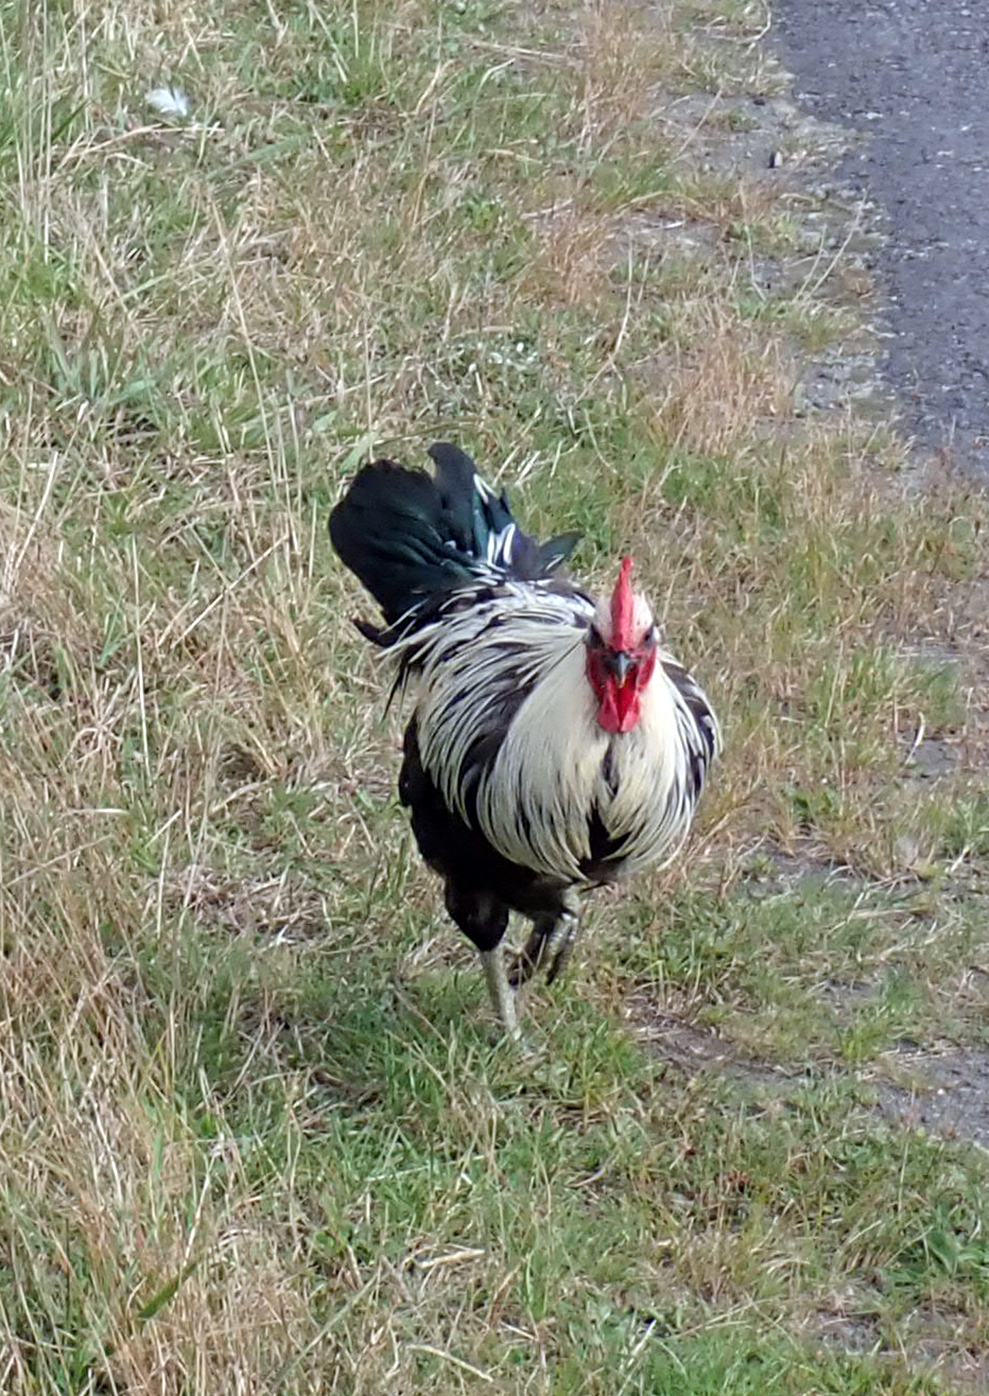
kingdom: Animalia
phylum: Chordata
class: Aves
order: Galliformes
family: Phasianidae
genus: Gallus
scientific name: Gallus gallus
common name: Red junglefowl
